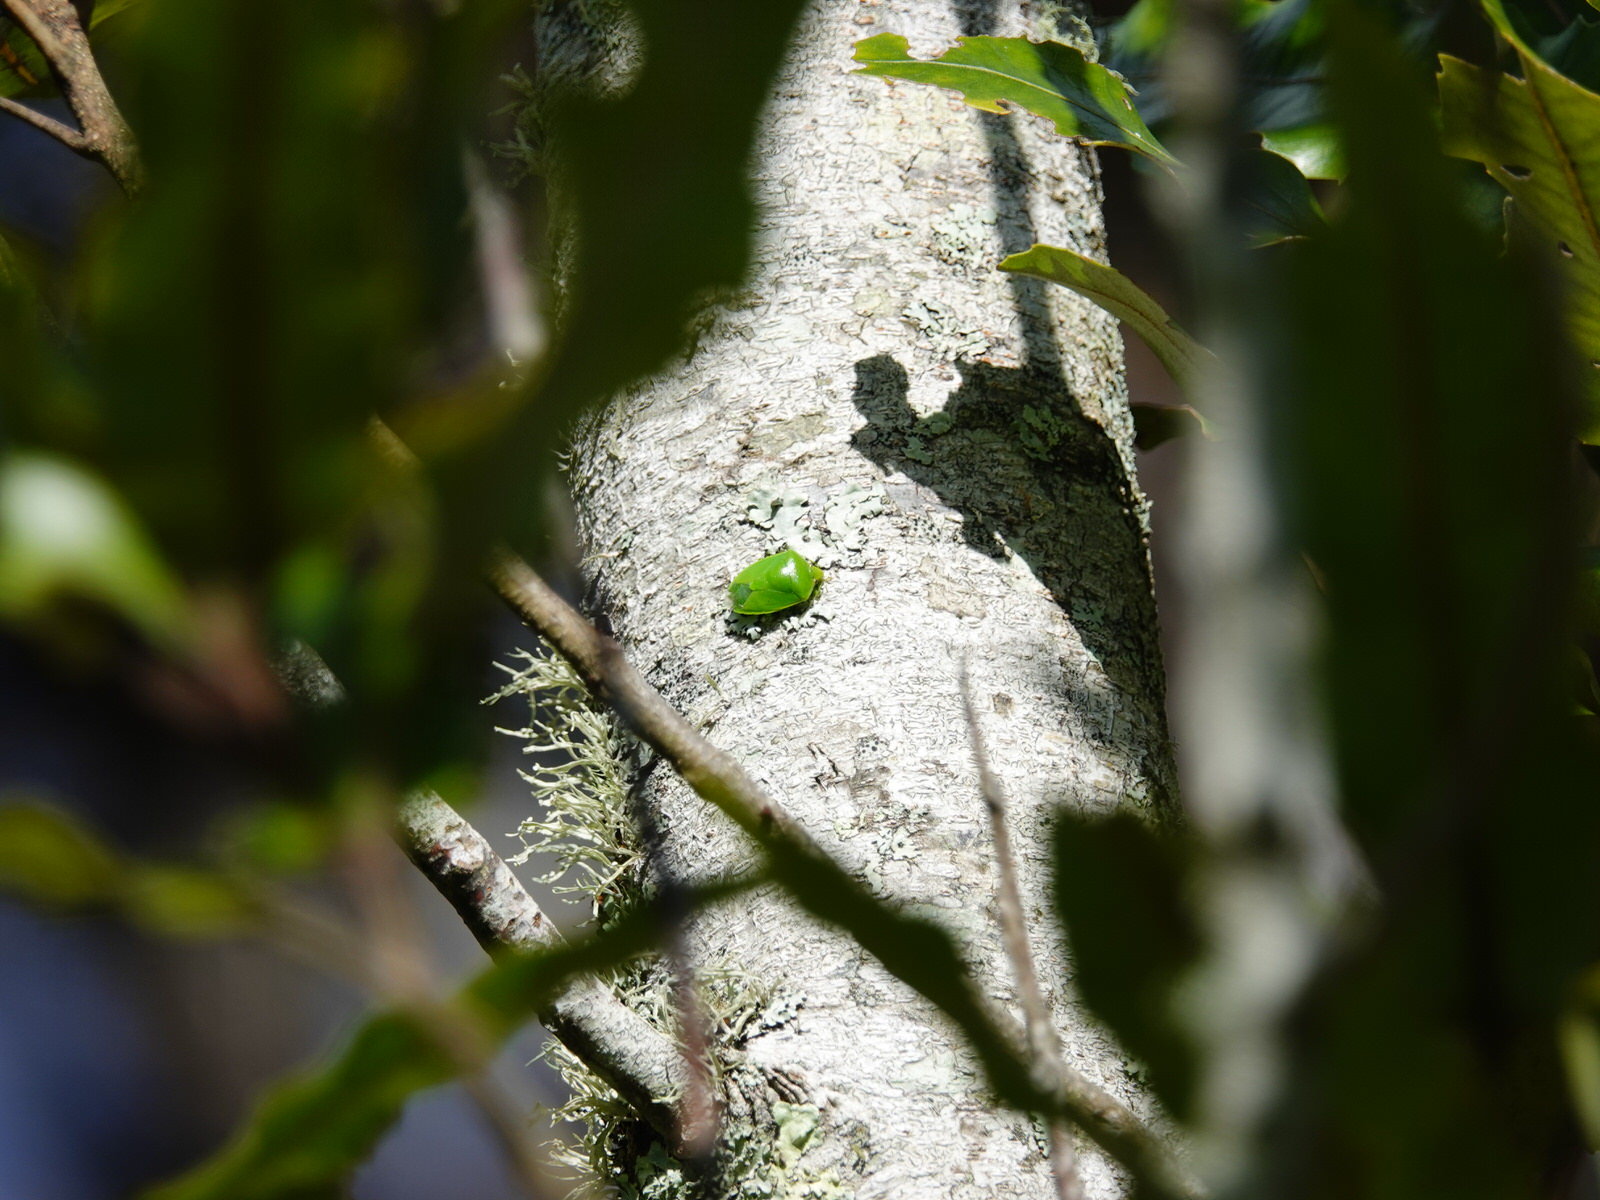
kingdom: Animalia
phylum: Arthropoda
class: Insecta
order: Hemiptera
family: Pentatomidae
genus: Glaucias
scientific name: Glaucias amyota
